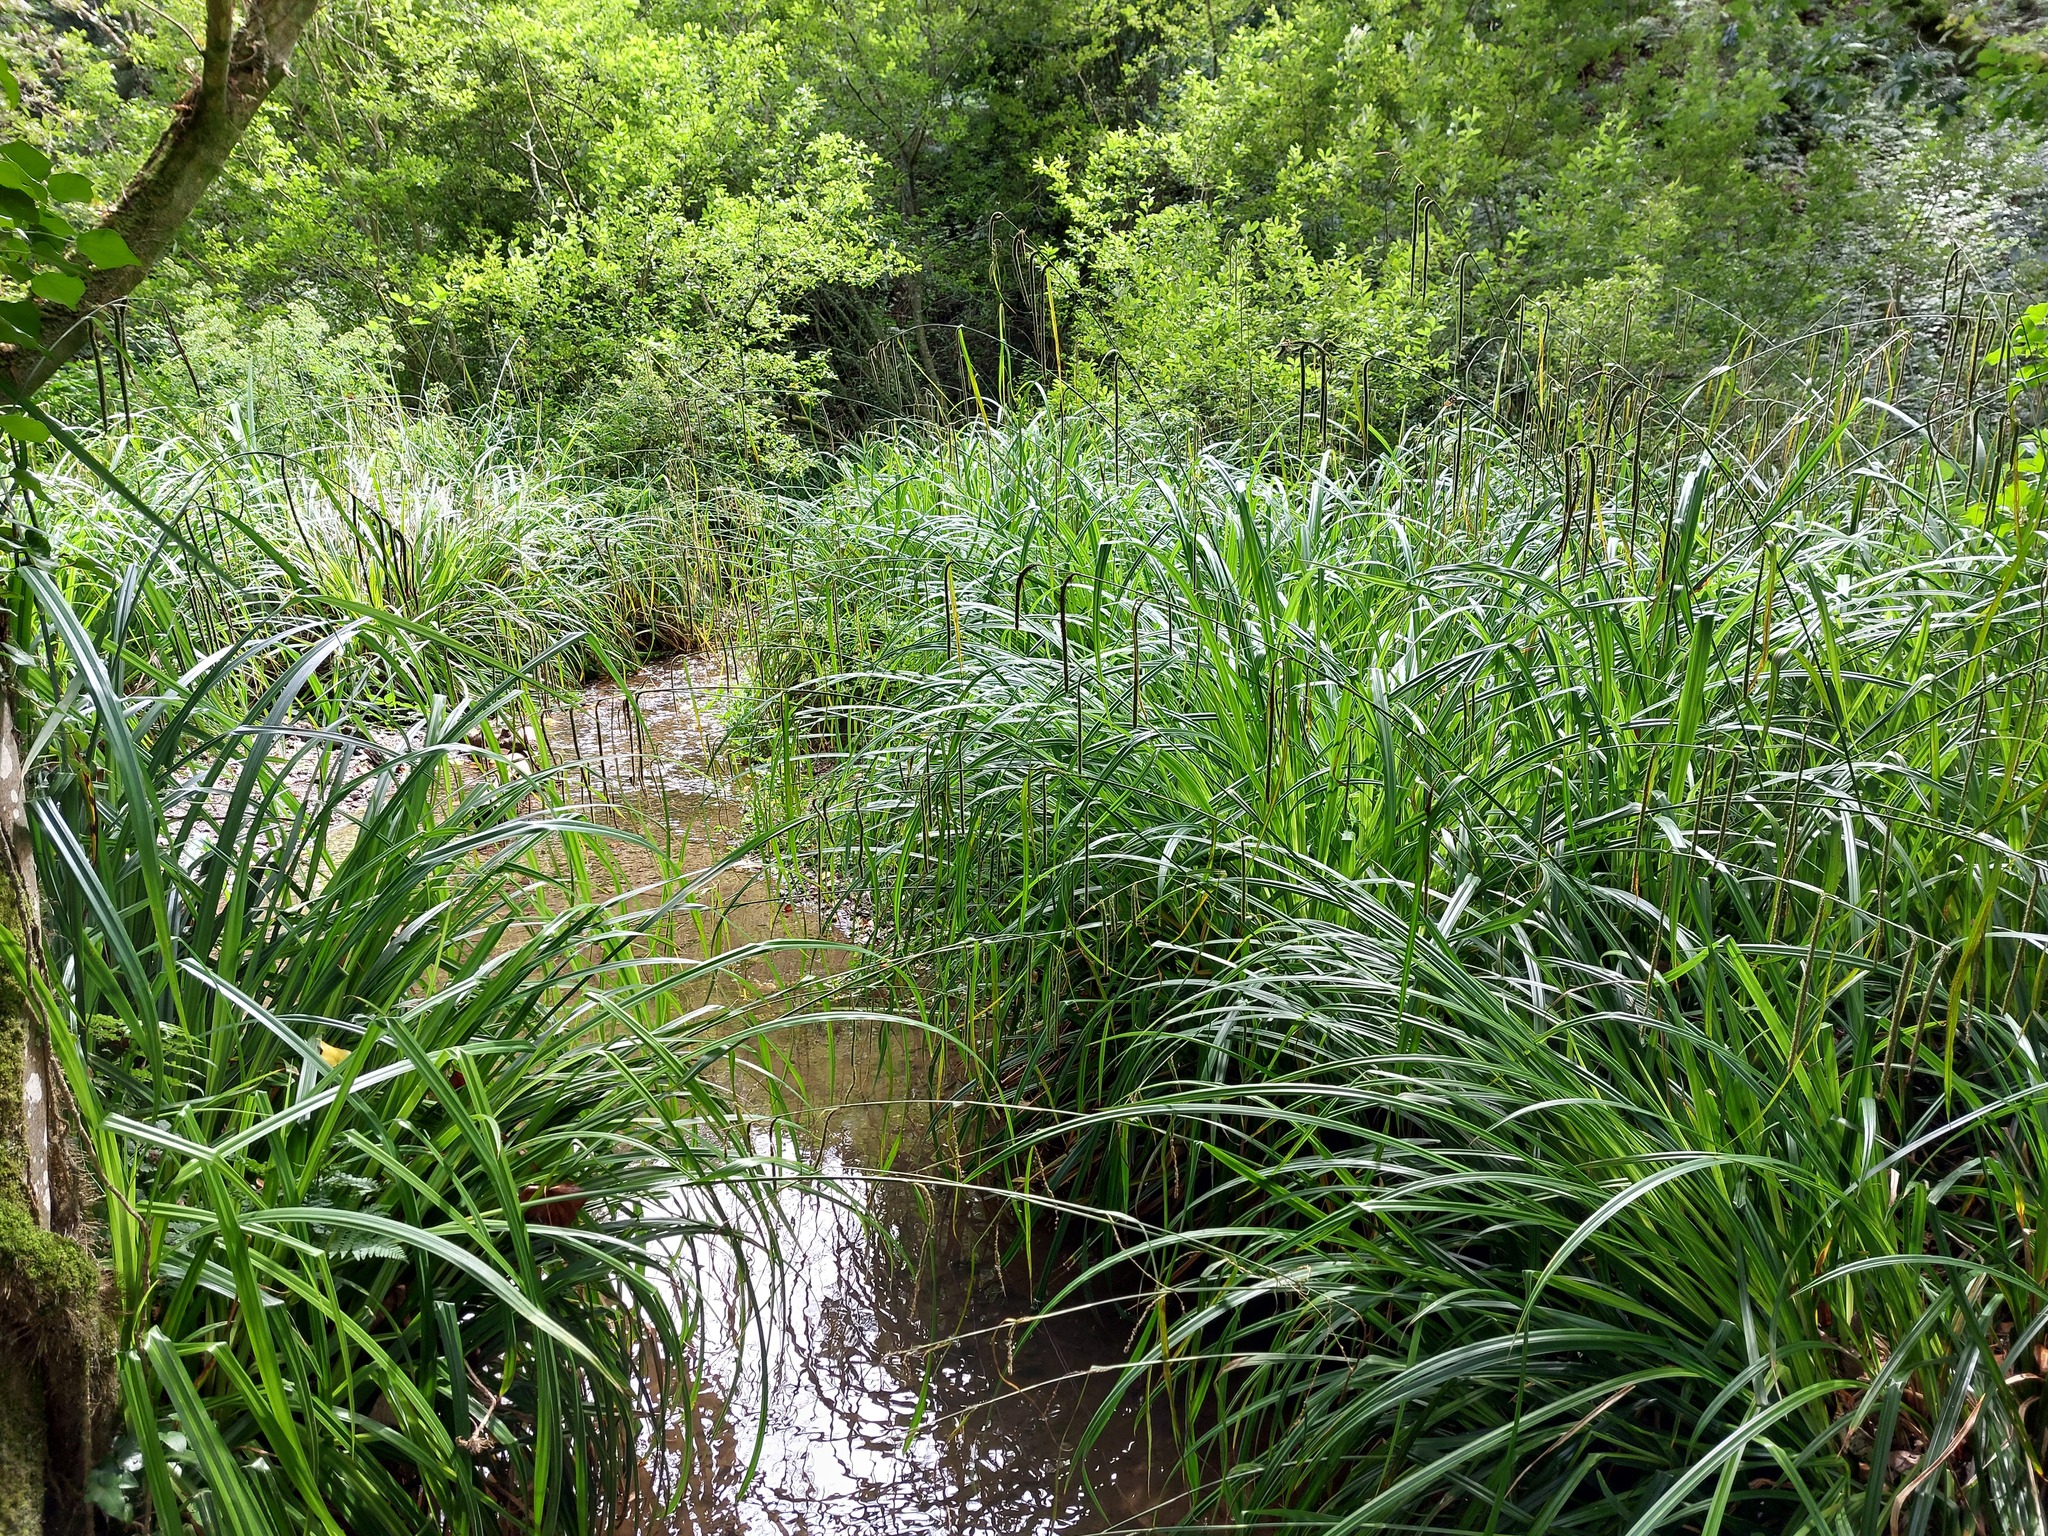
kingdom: Plantae
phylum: Tracheophyta
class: Liliopsida
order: Poales
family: Cyperaceae
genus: Carex
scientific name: Carex pendula
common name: Pendulous sedge
